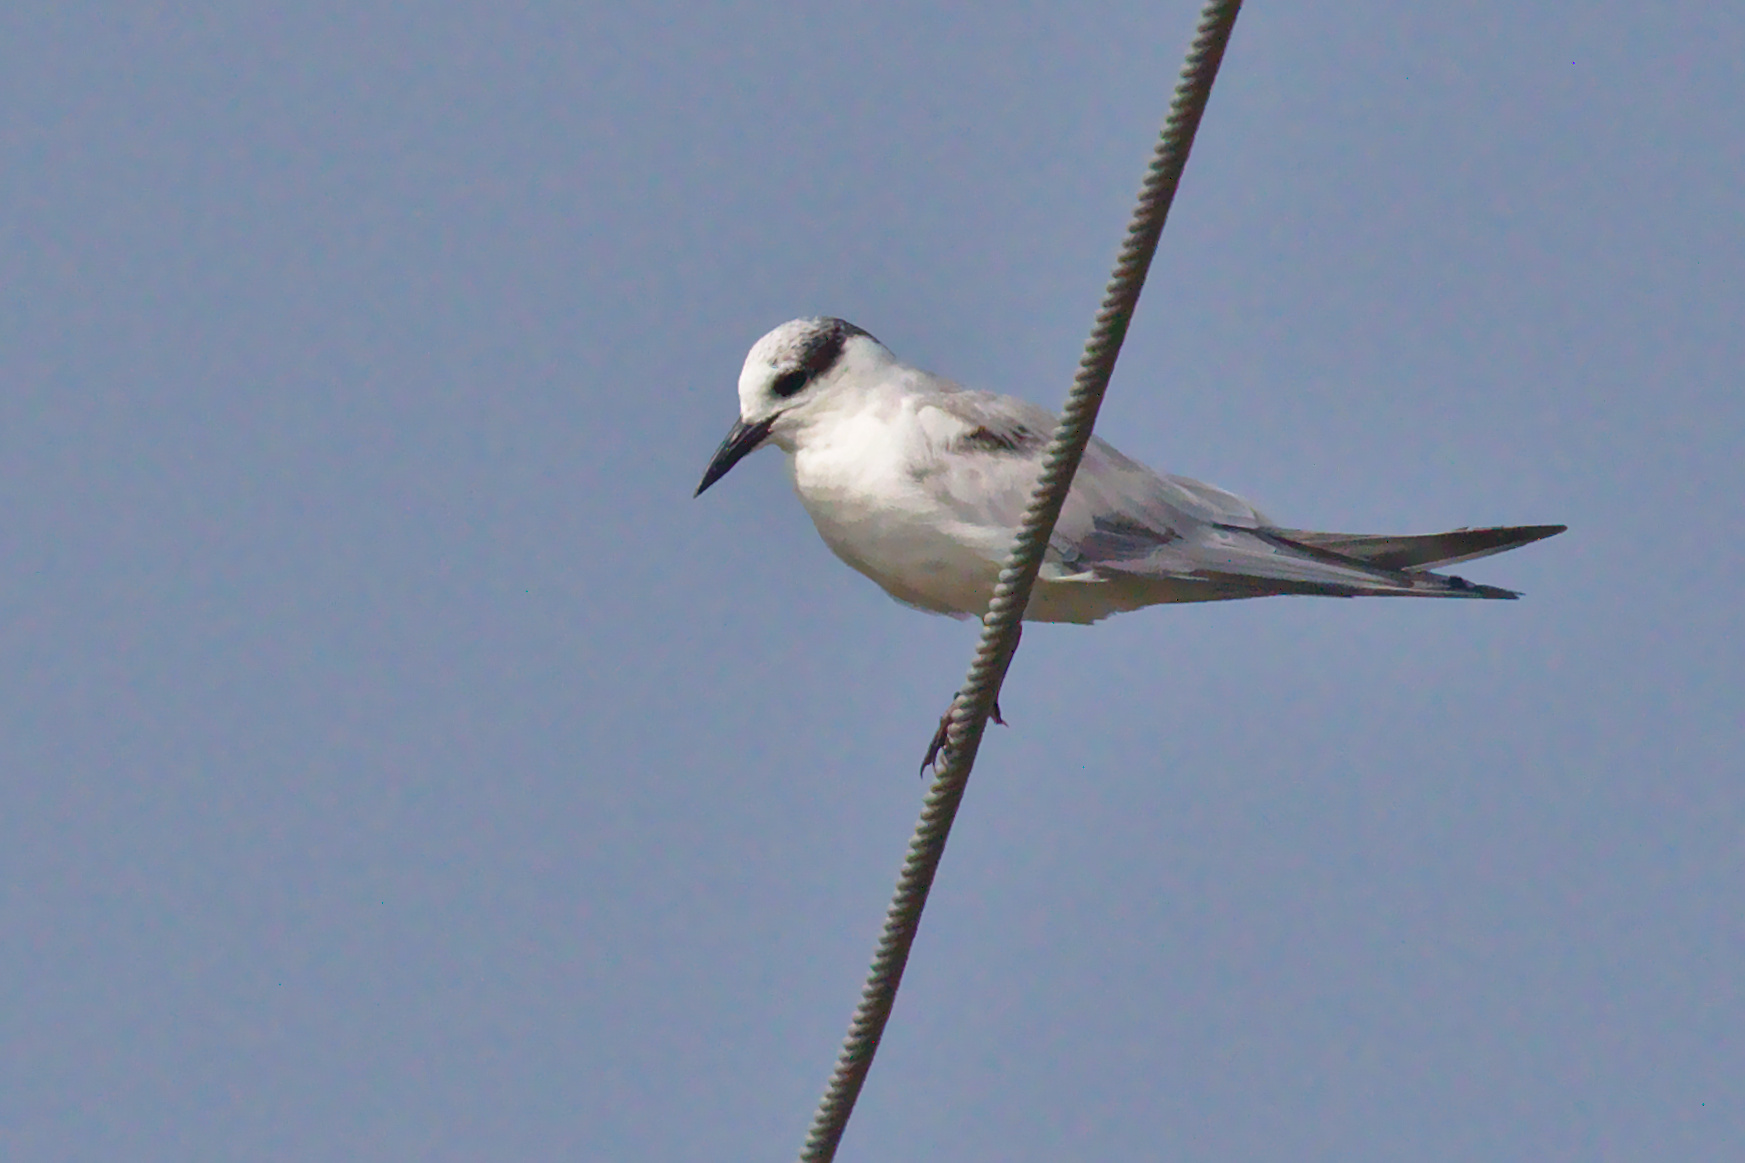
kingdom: Animalia
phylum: Chordata
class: Aves
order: Charadriiformes
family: Laridae
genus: Chlidonias
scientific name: Chlidonias hybrida
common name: Whiskered tern
